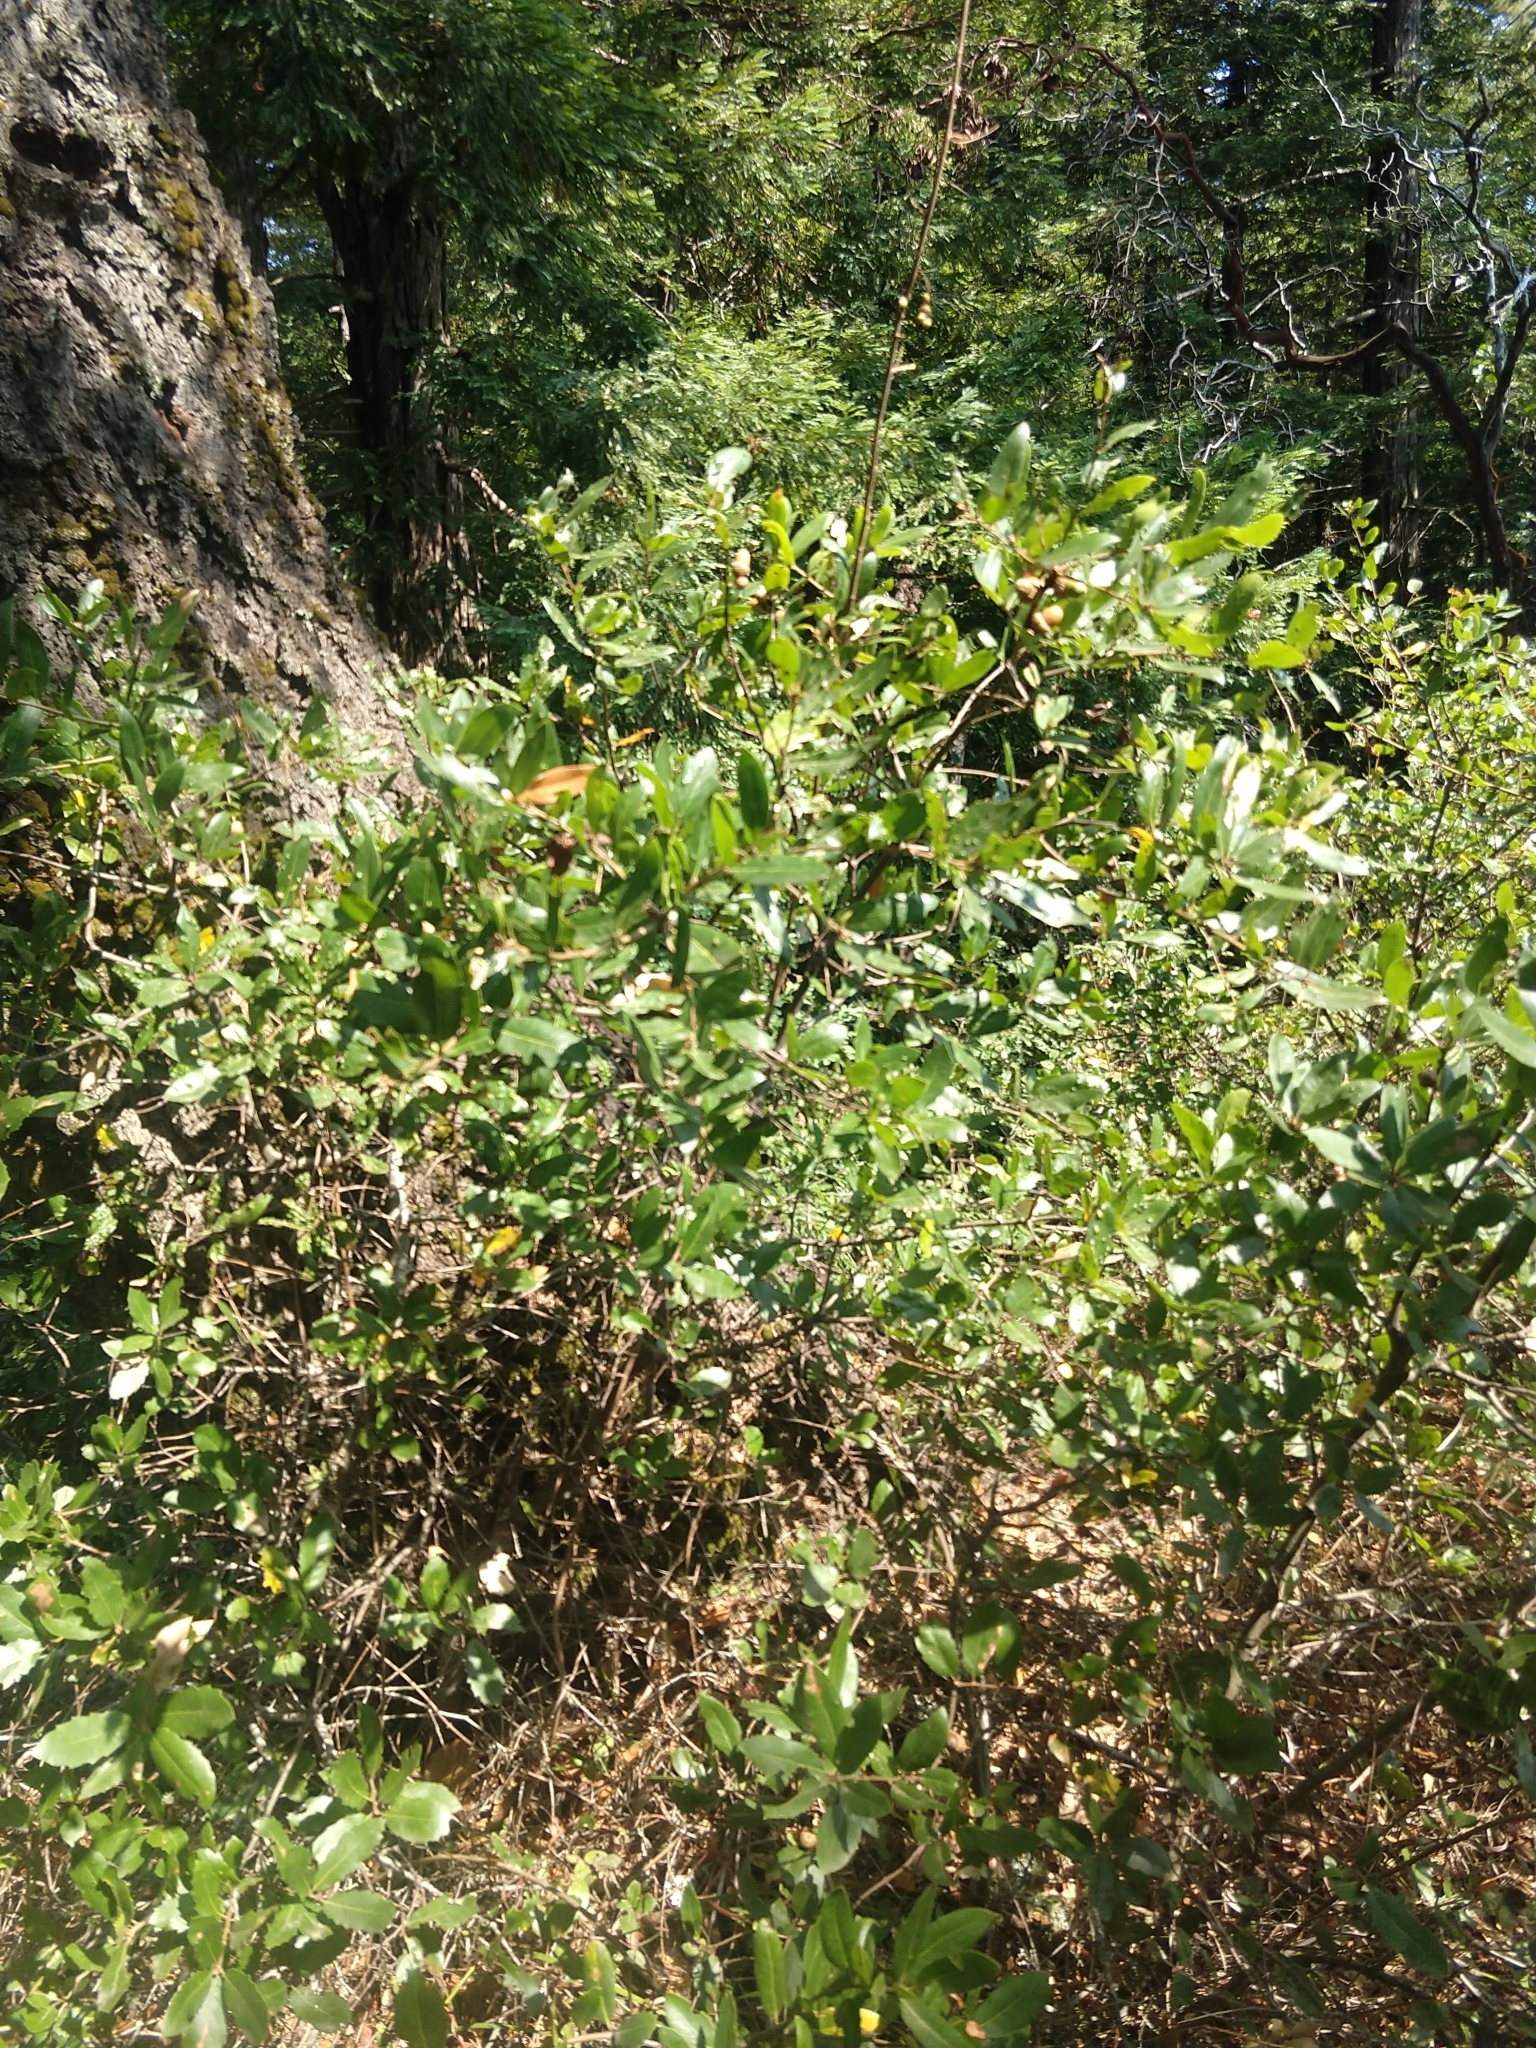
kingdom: Animalia
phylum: Arthropoda
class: Arachnida
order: Trombidiformes
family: Eriophyidae
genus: Aceria
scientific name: Aceria
